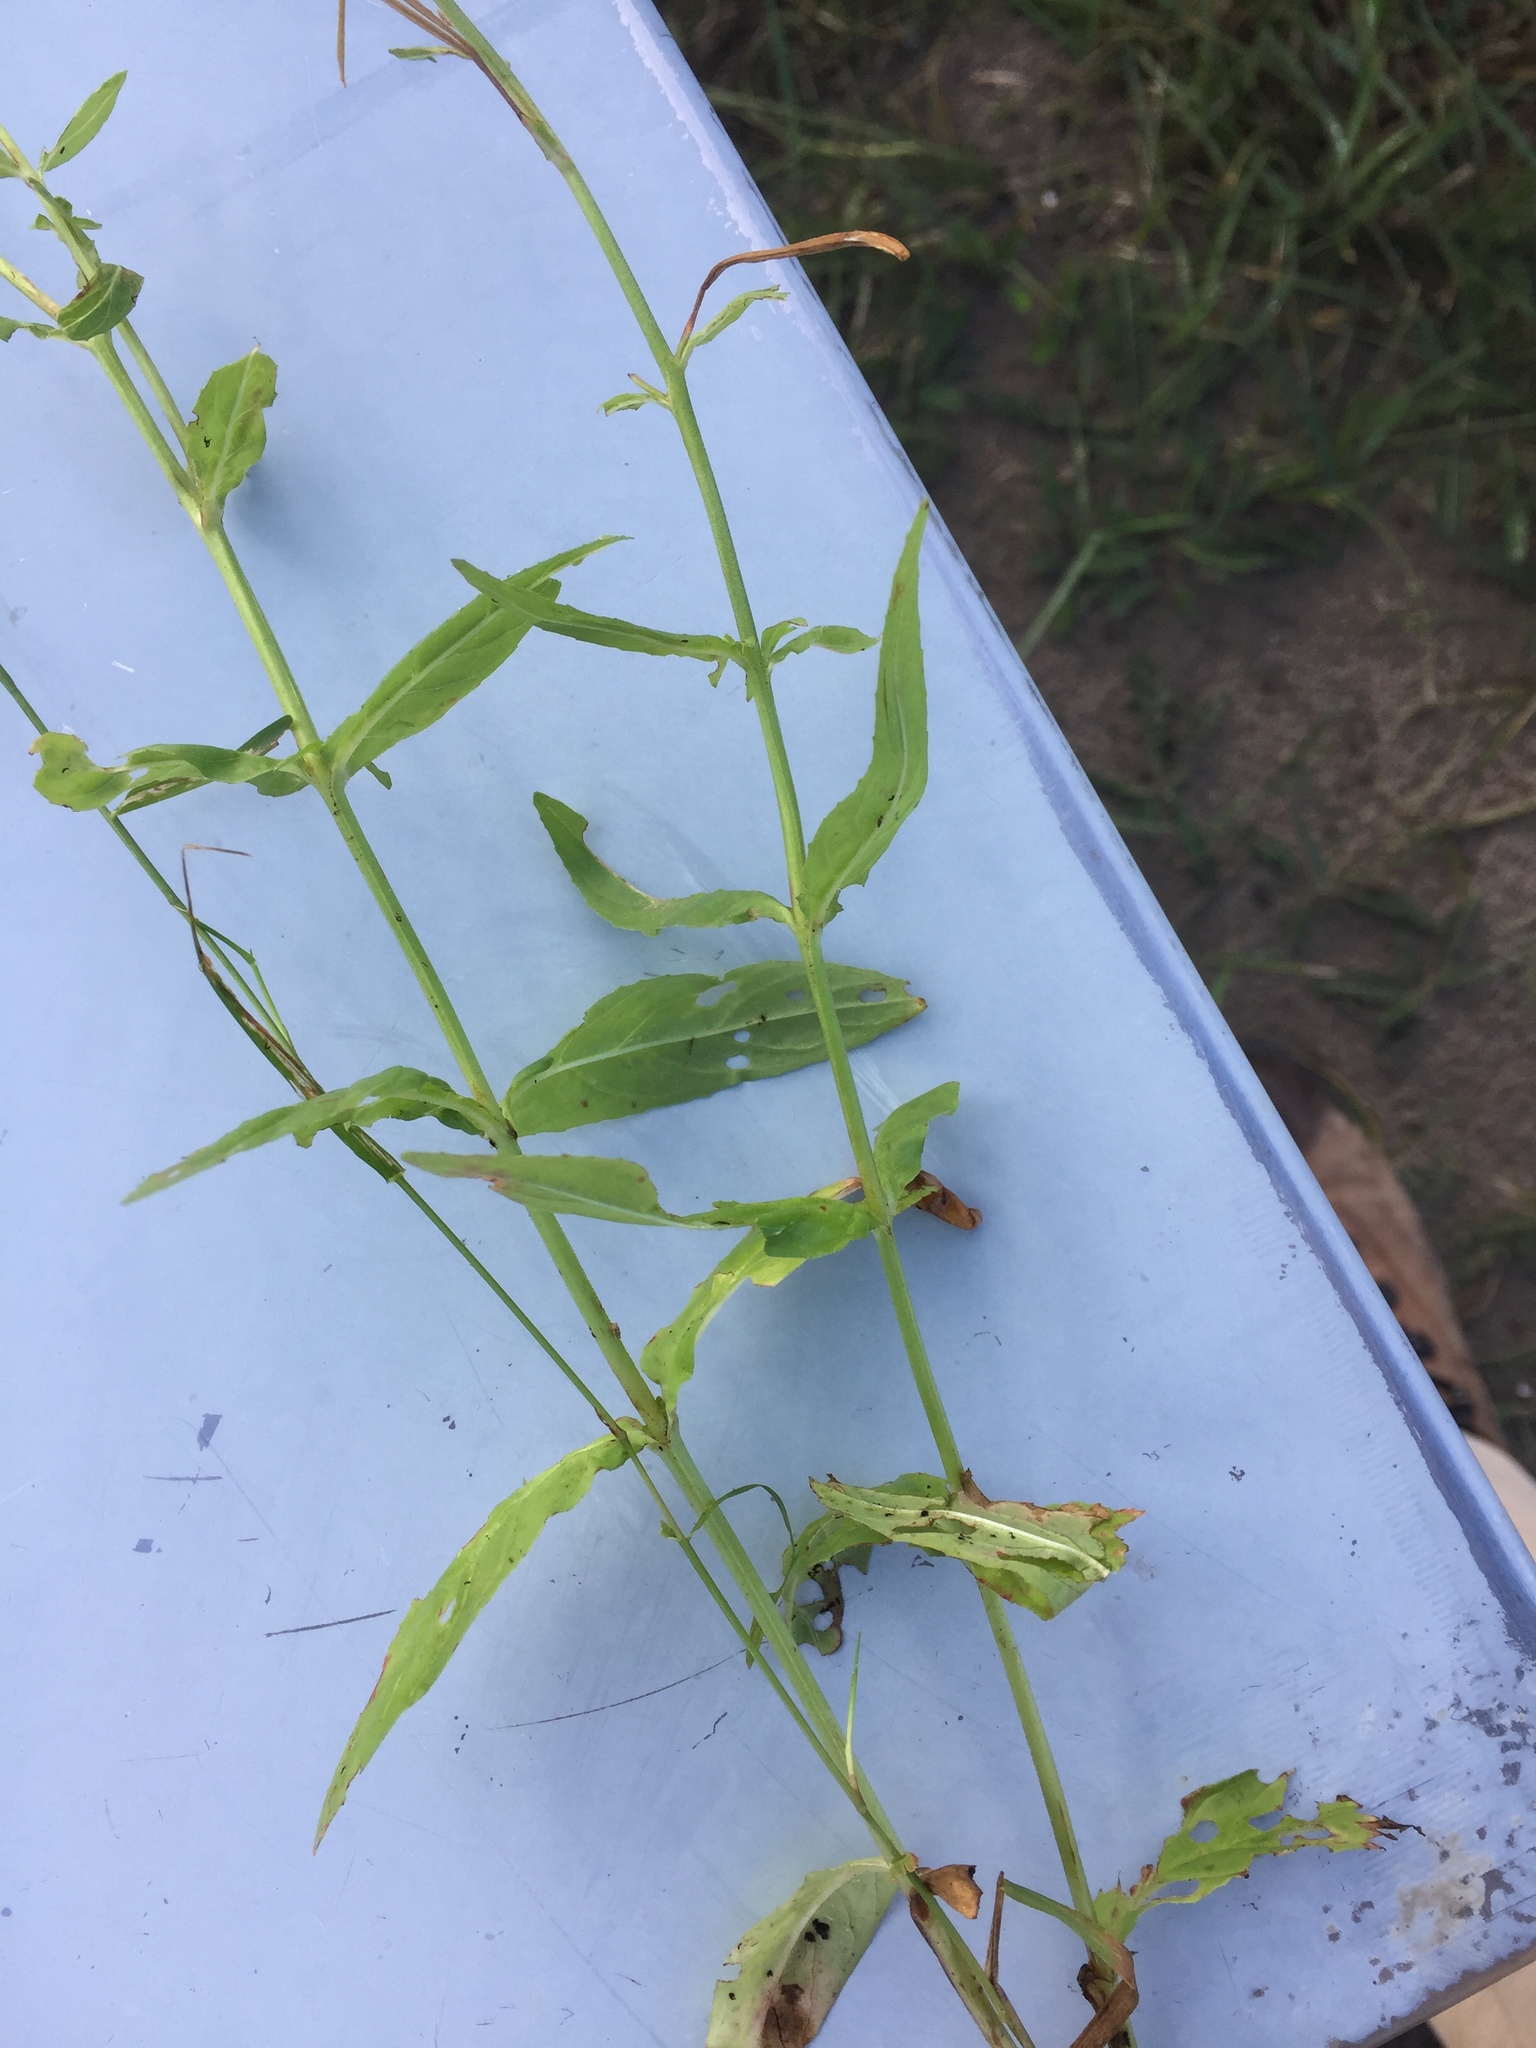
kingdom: Plantae
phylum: Tracheophyta
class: Magnoliopsida
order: Myrtales
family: Lythraceae
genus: Lythrum
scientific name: Lythrum salicaria
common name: Purple loosestrife
